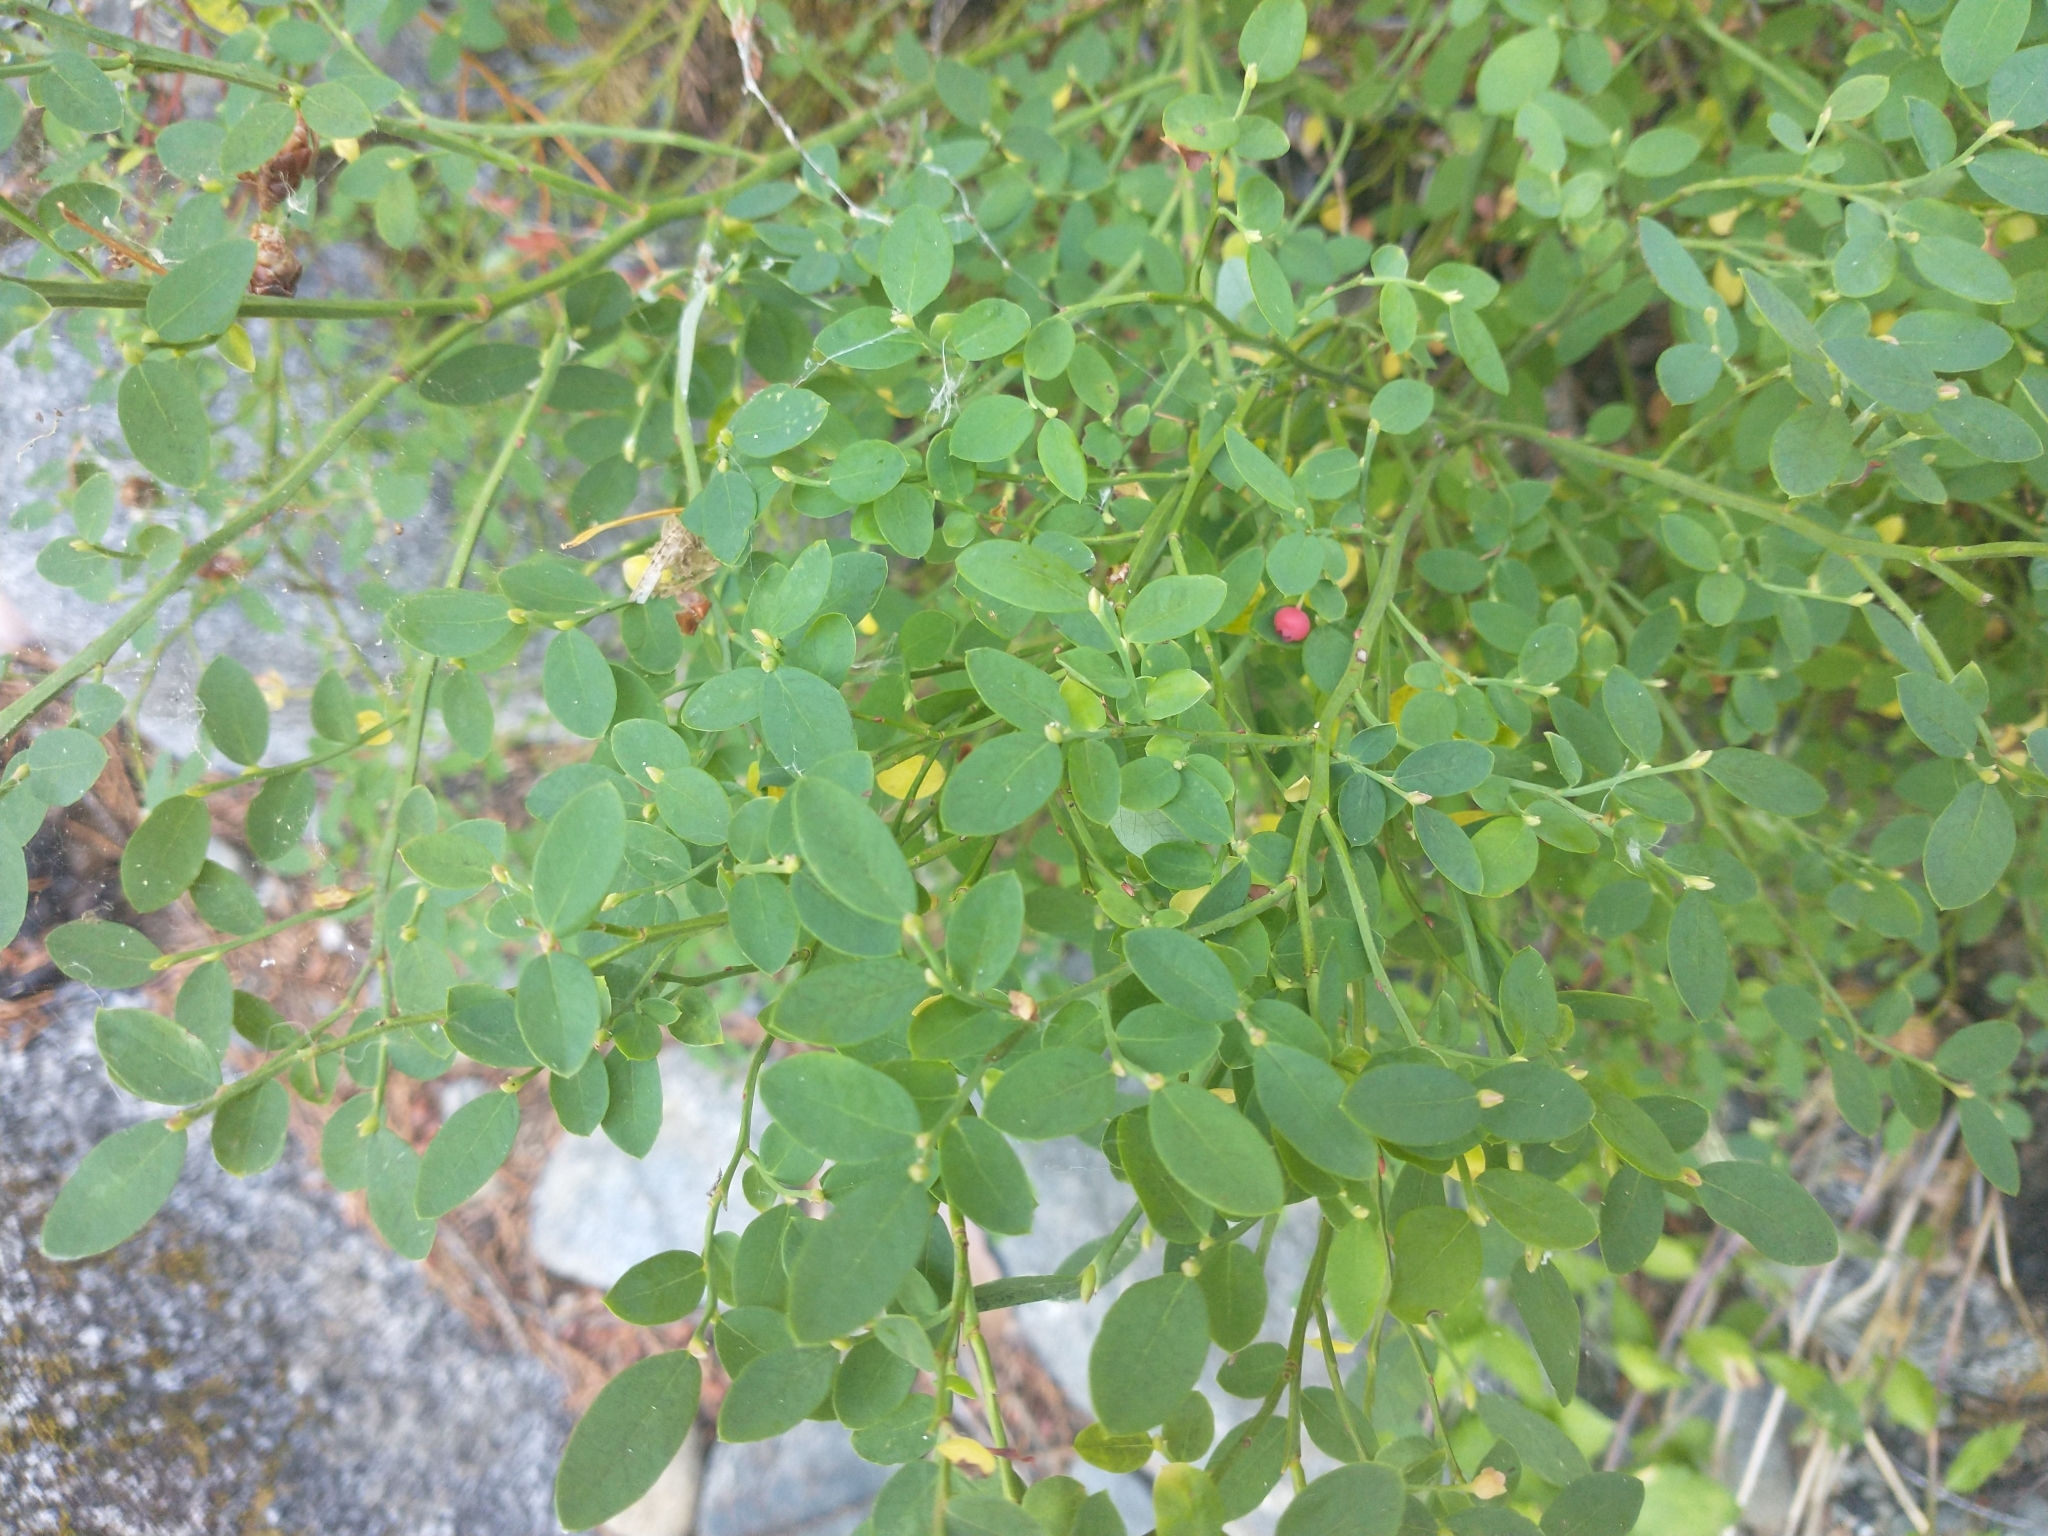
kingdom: Plantae
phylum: Tracheophyta
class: Magnoliopsida
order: Ericales
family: Ericaceae
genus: Vaccinium
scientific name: Vaccinium parvifolium
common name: Red-huckleberry
